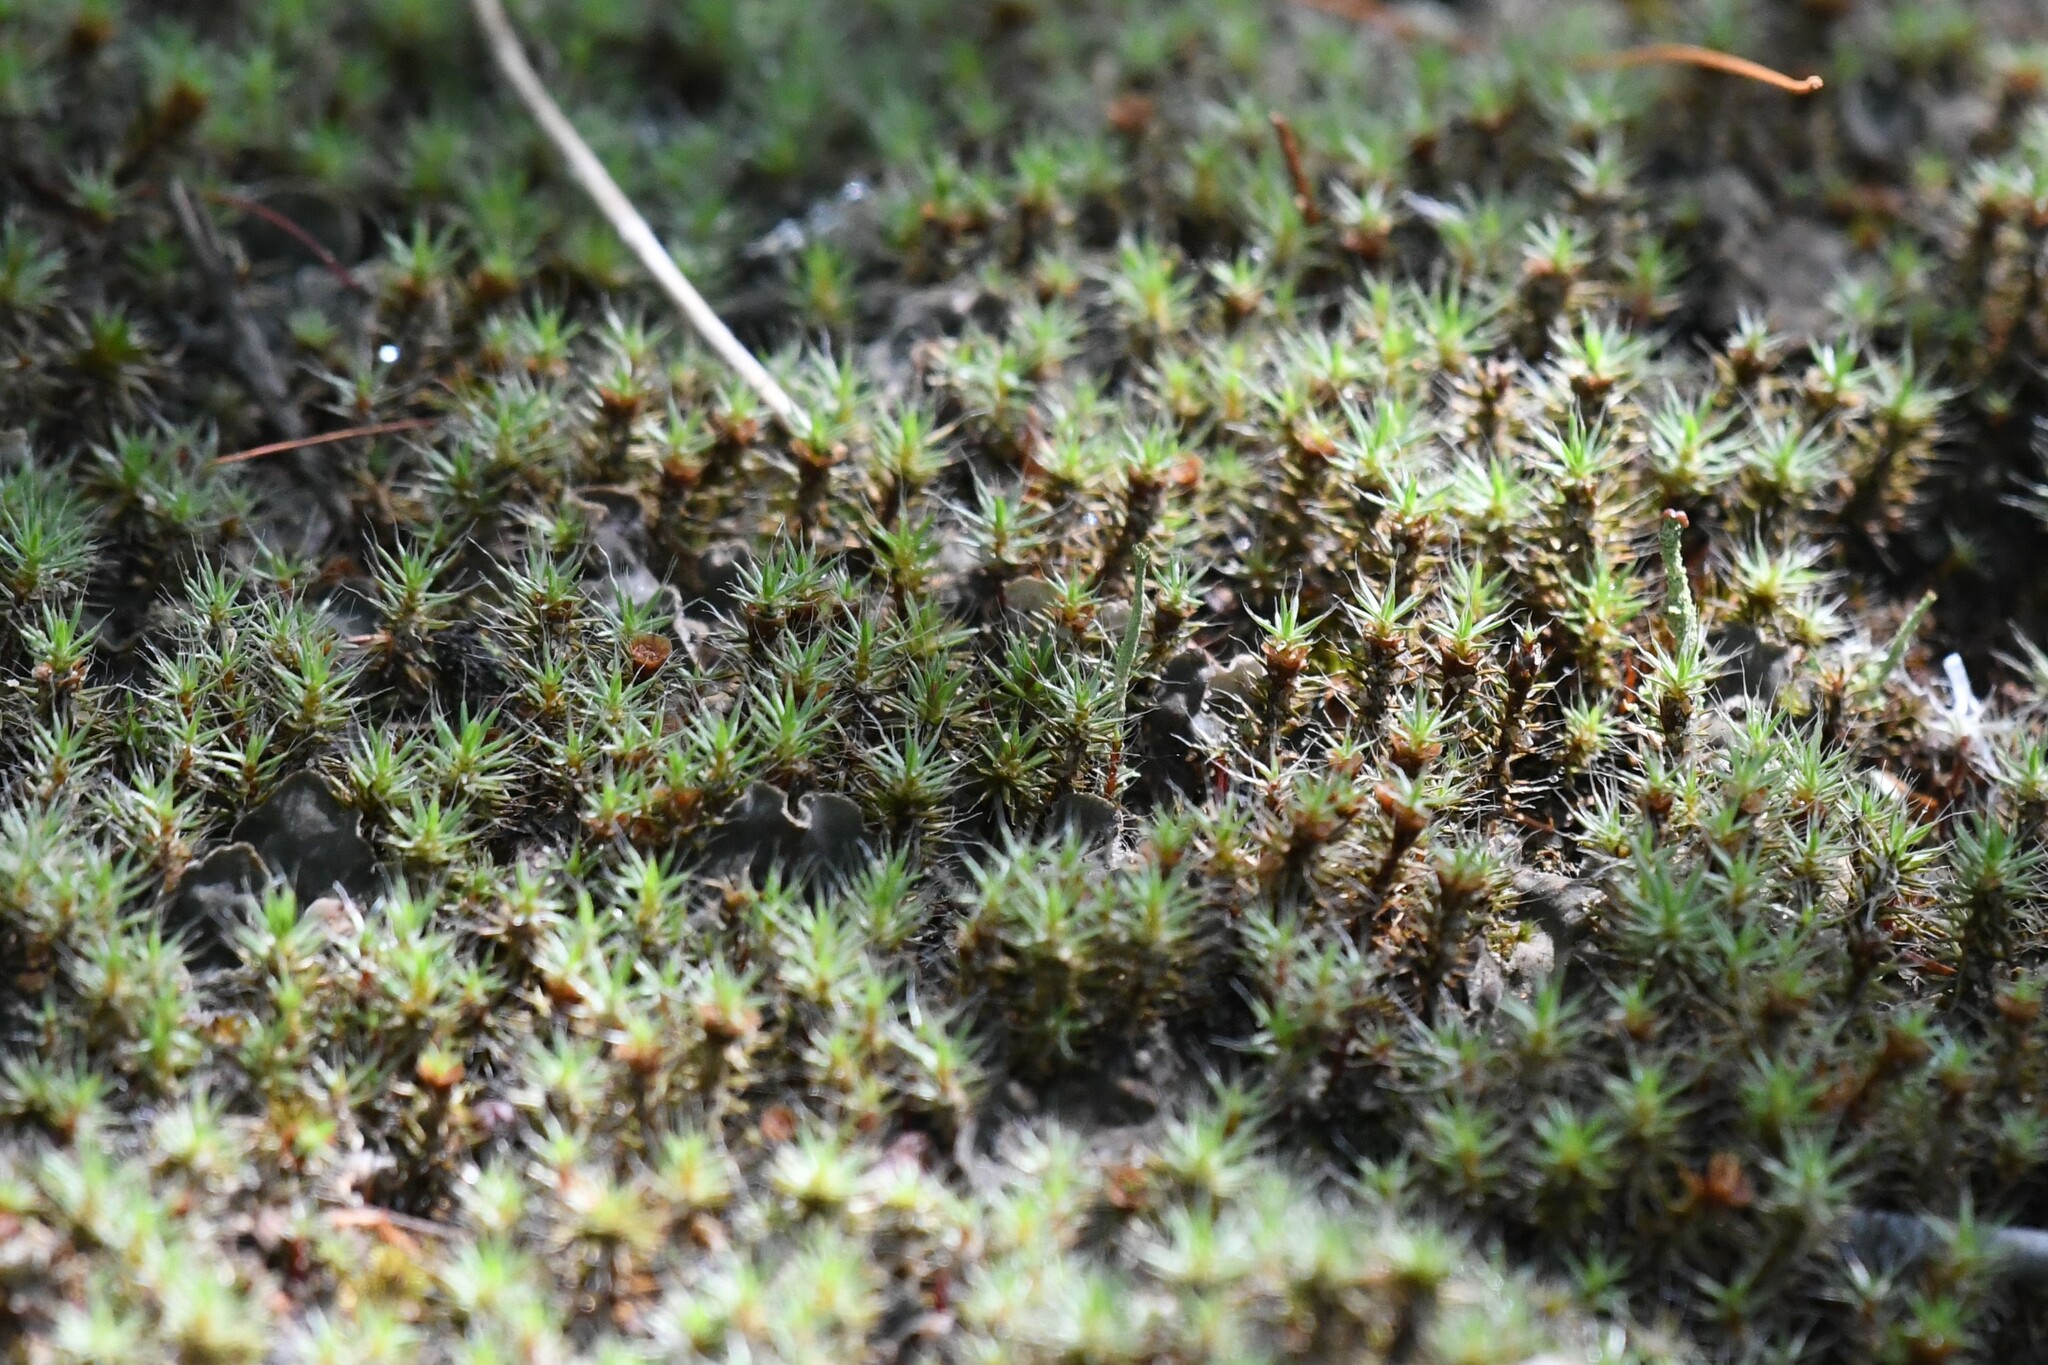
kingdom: Plantae
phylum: Bryophyta
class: Polytrichopsida
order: Polytrichales
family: Polytrichaceae
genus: Polytrichum
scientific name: Polytrichum piliferum
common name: Bristly haircap
